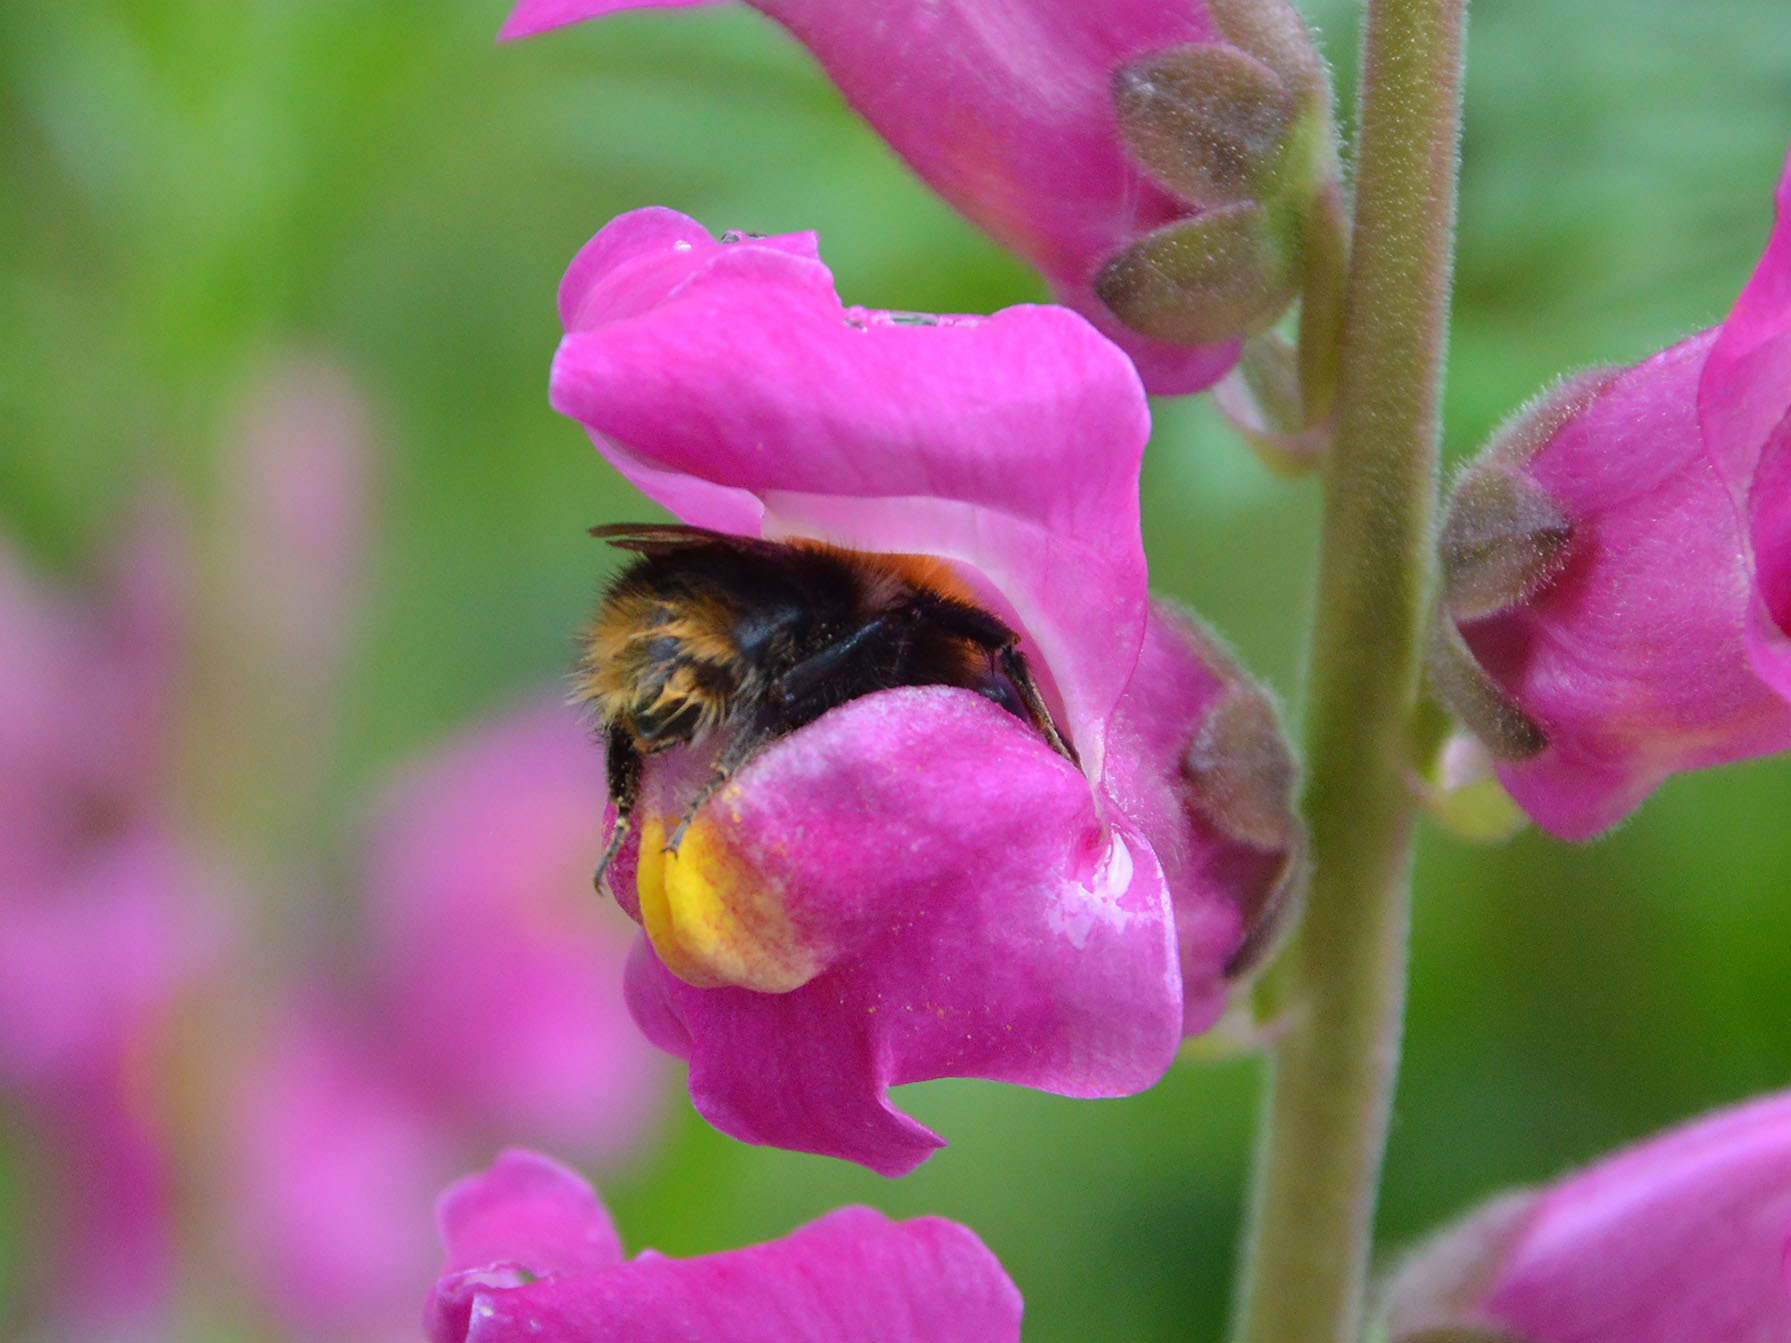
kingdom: Animalia
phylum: Arthropoda
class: Insecta
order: Hymenoptera
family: Apidae
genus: Bombus
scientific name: Bombus pascuorum
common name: Common carder bee
